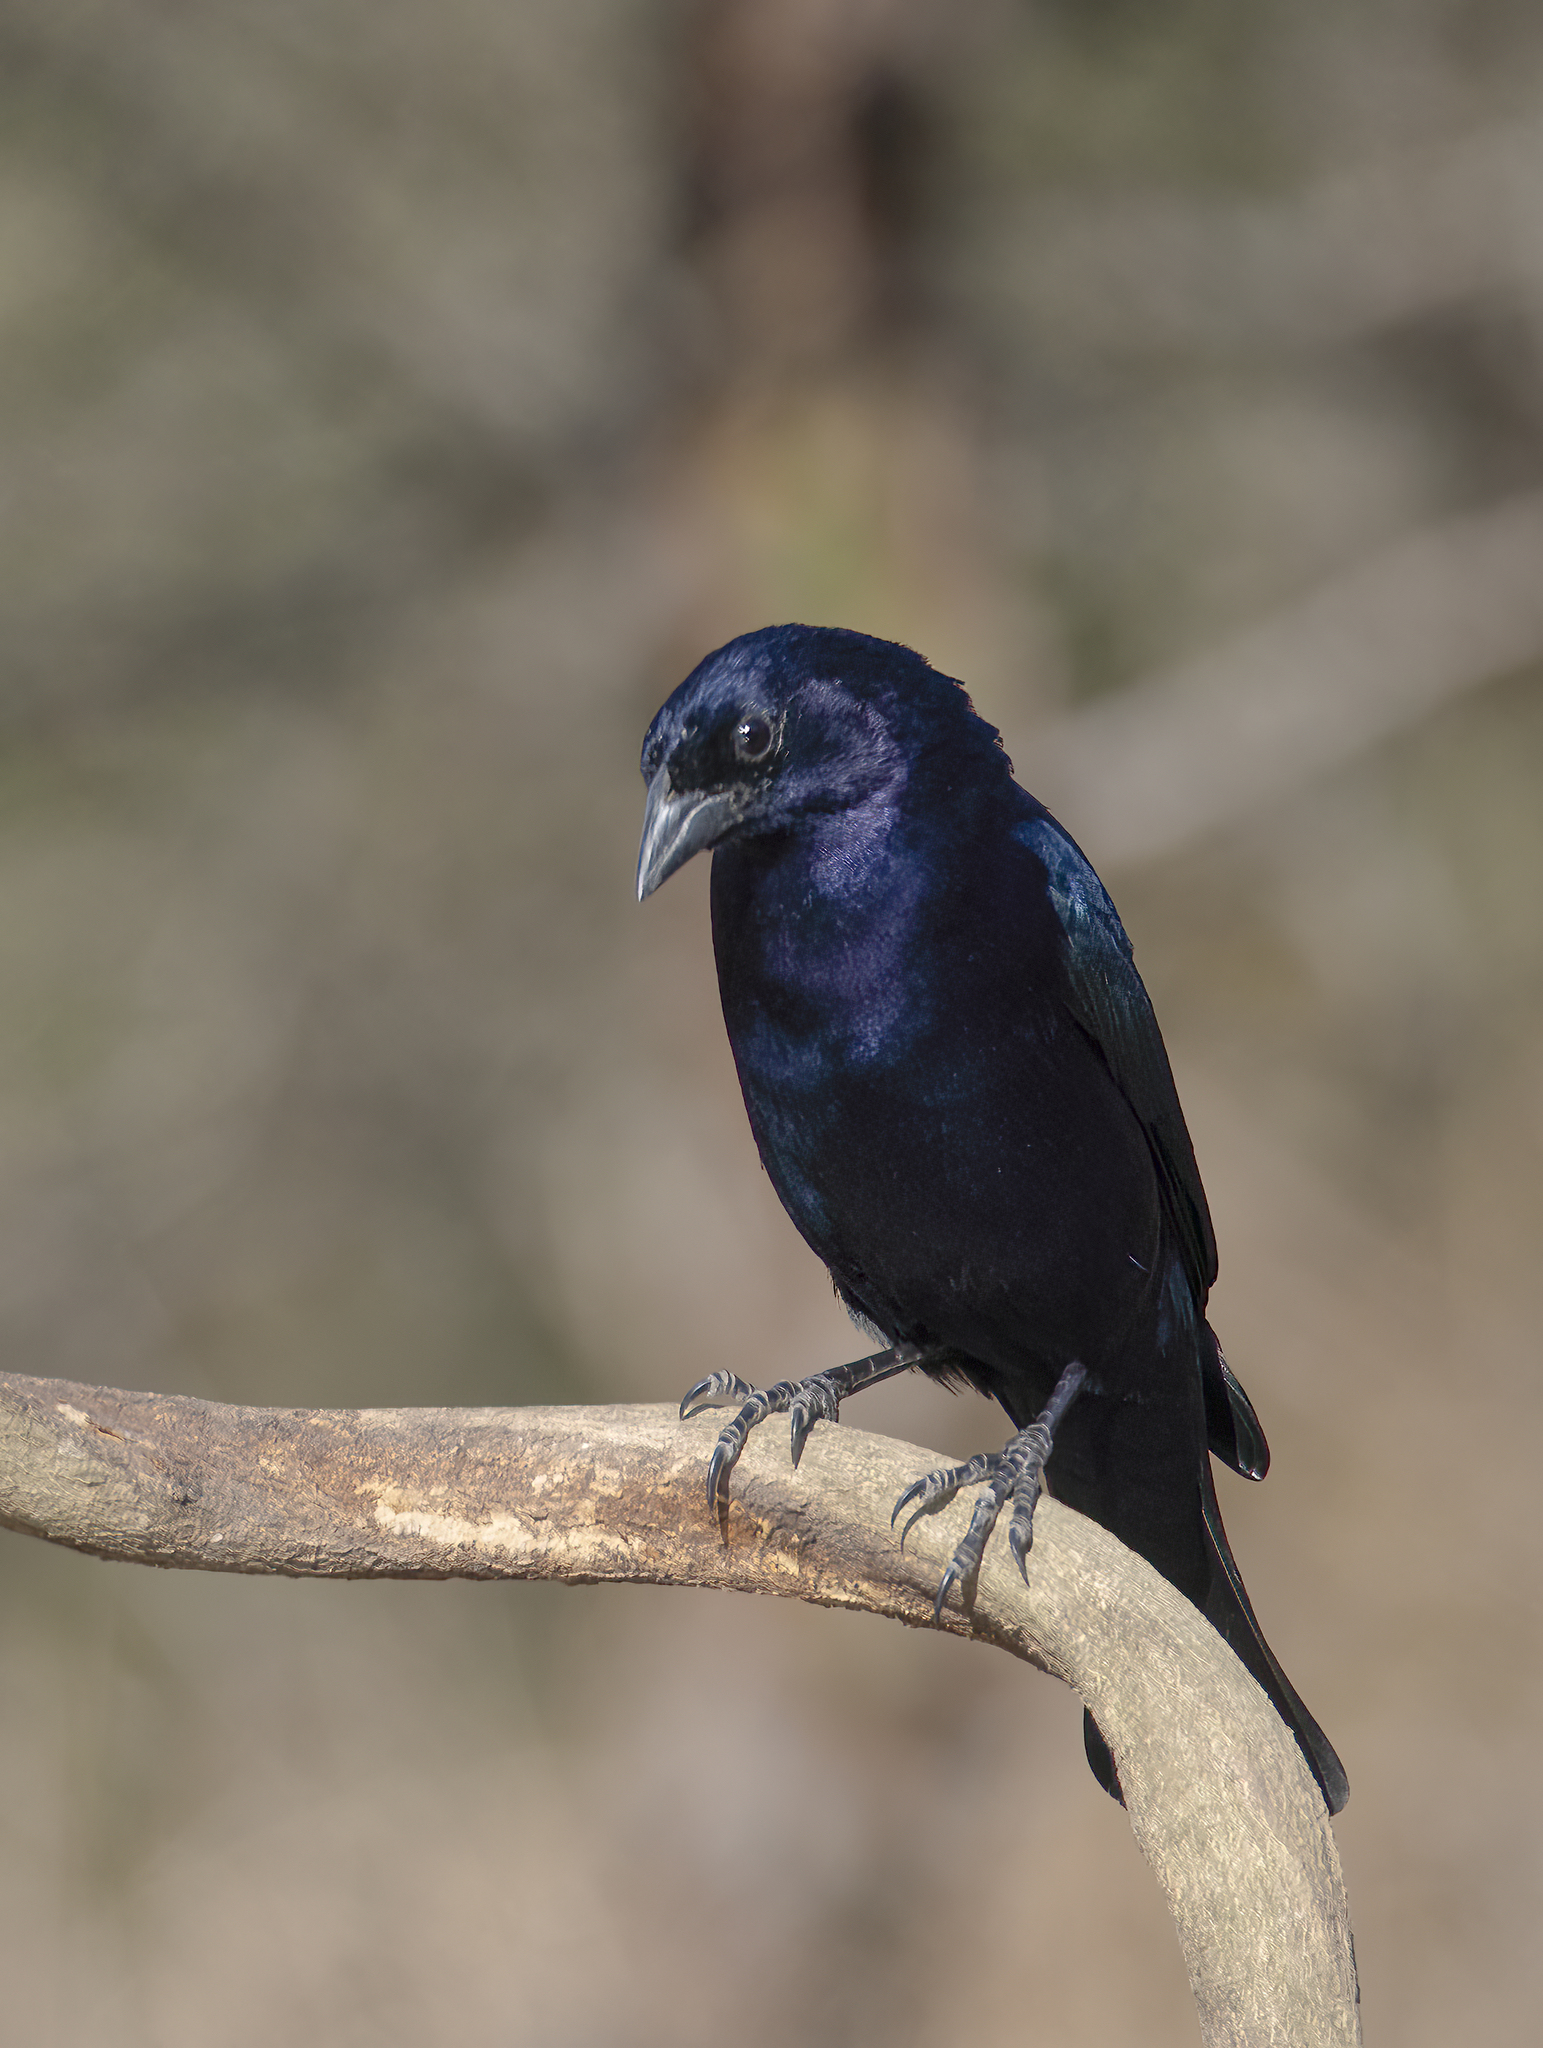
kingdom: Animalia
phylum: Chordata
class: Aves
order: Passeriformes
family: Icteridae
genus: Molothrus
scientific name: Molothrus bonariensis
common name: Shiny cowbird
